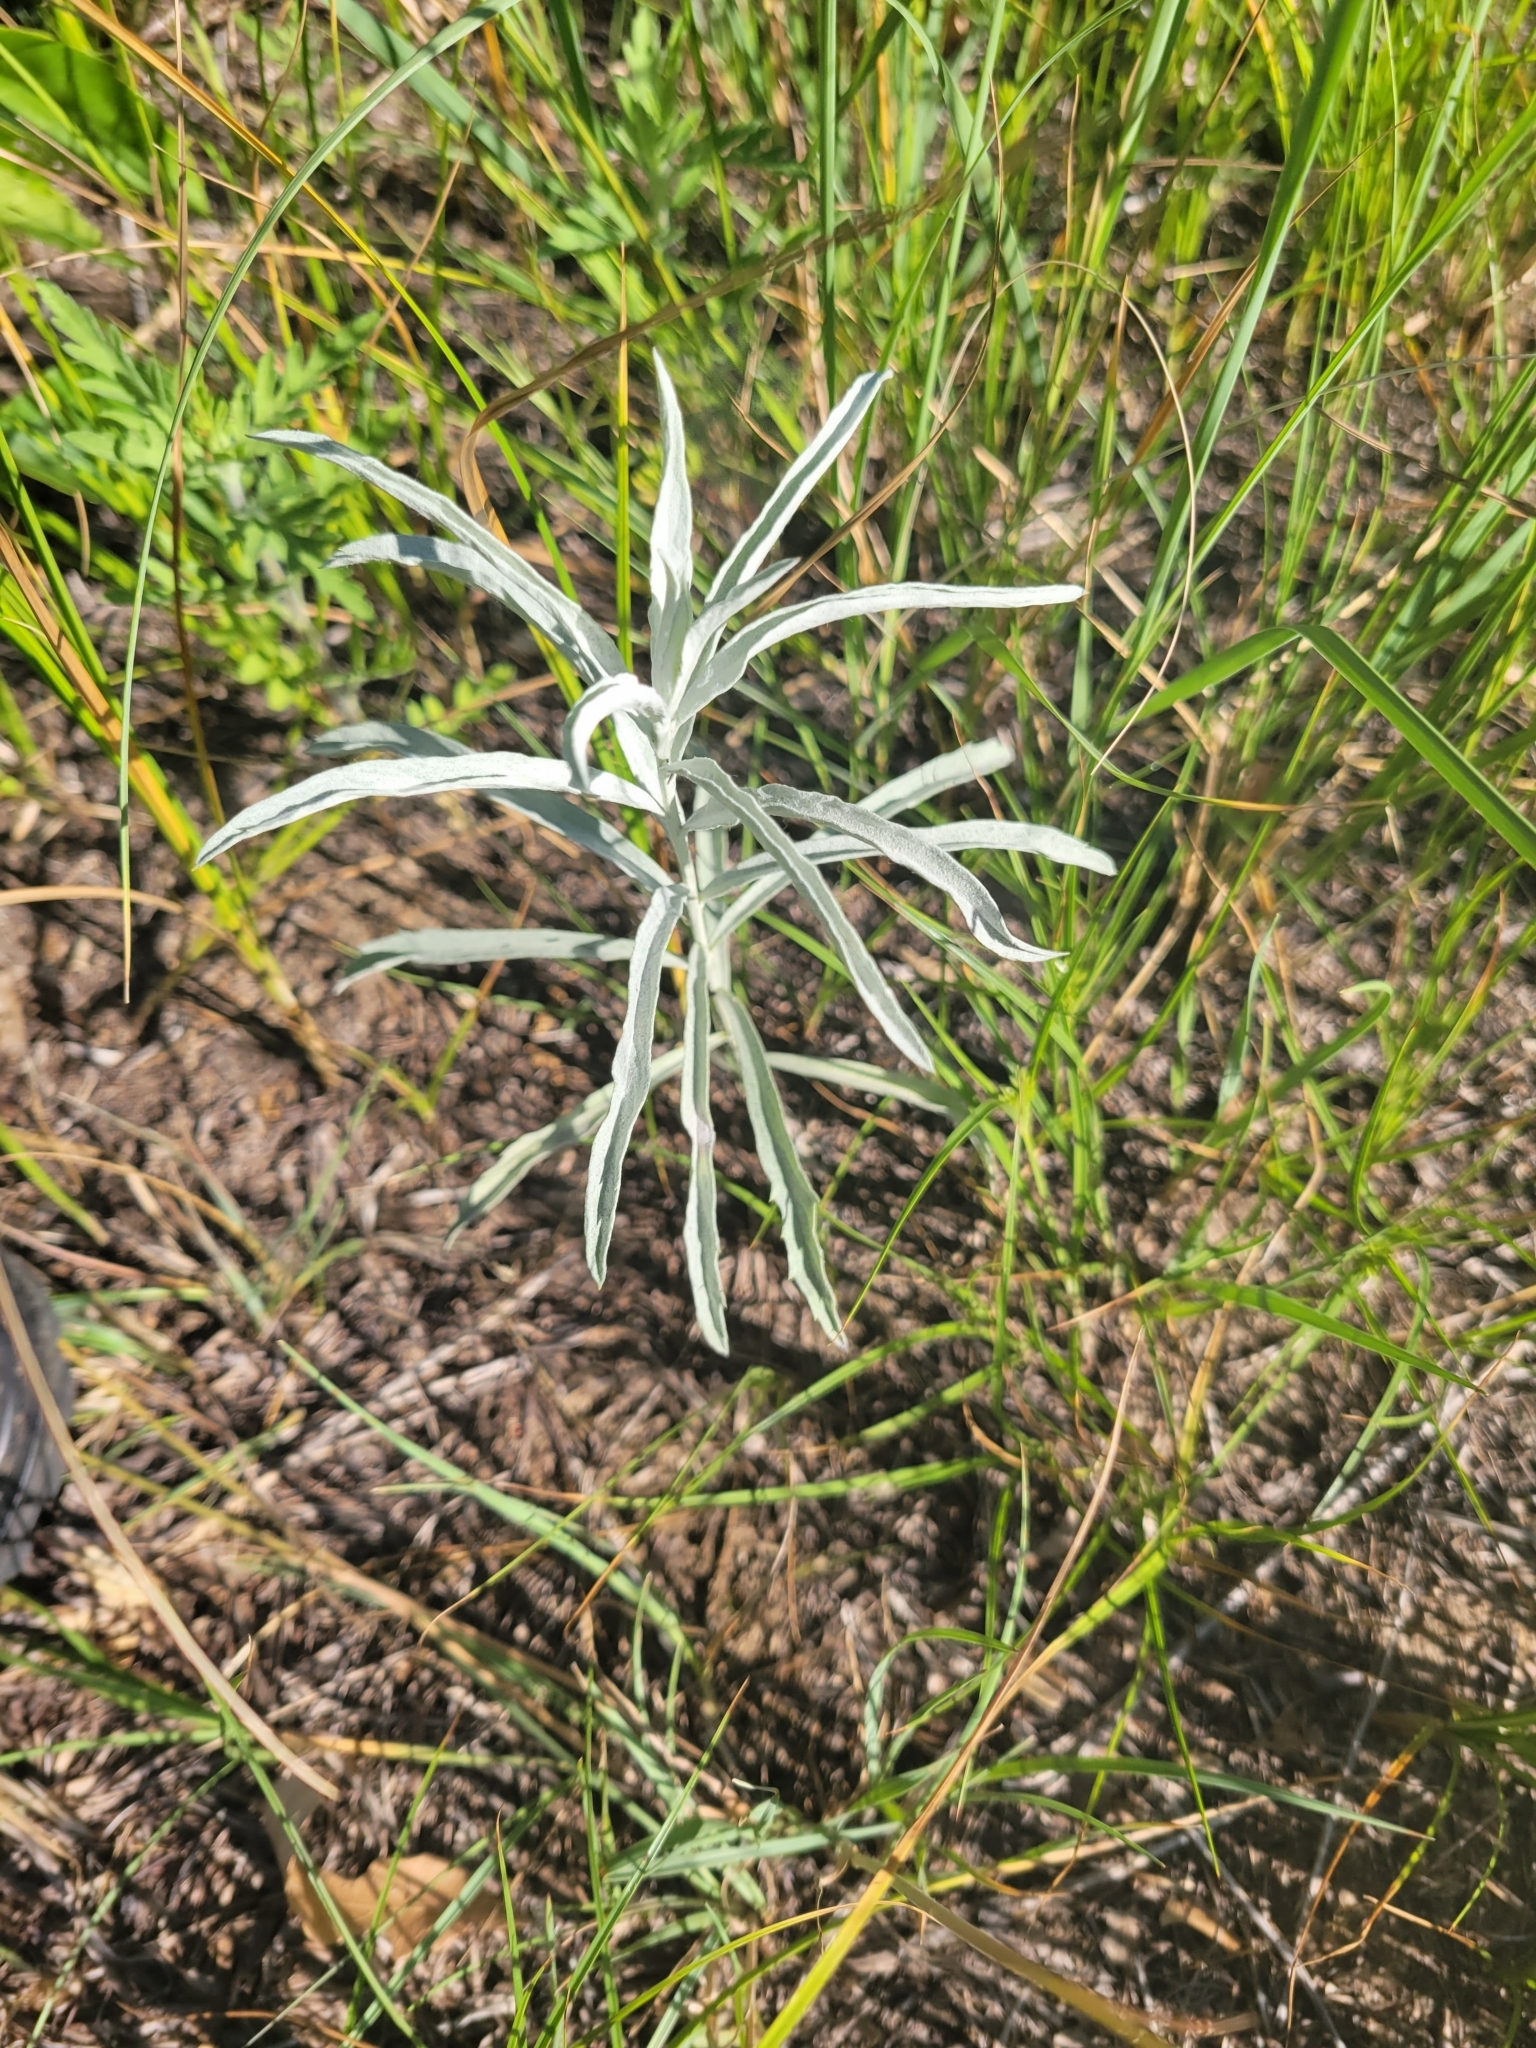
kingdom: Plantae
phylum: Tracheophyta
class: Magnoliopsida
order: Asterales
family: Asteraceae
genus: Artemisia
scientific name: Artemisia ludoviciana
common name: Western mugwort
